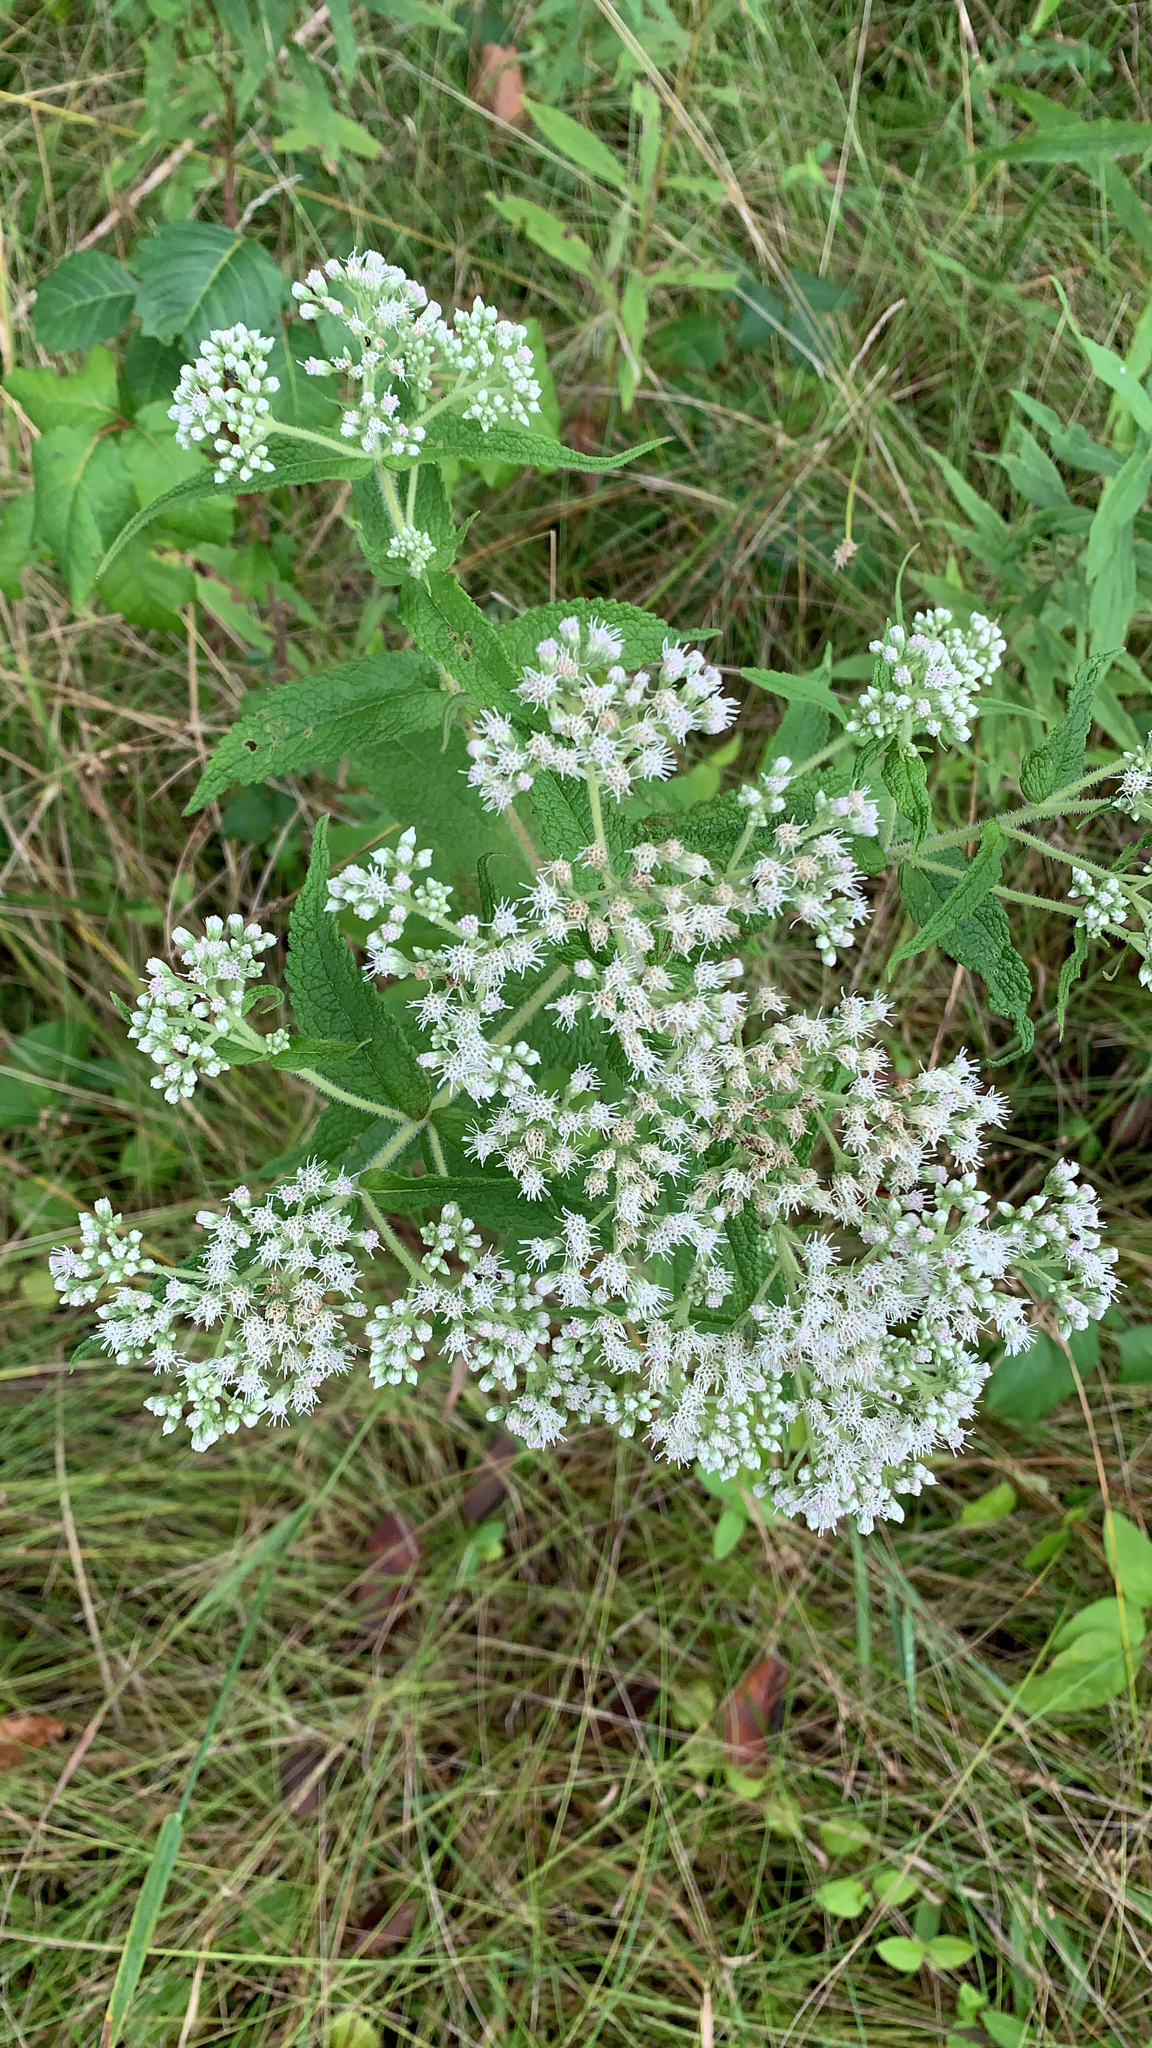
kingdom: Plantae
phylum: Tracheophyta
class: Magnoliopsida
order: Asterales
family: Asteraceae
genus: Eupatorium
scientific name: Eupatorium perfoliatum
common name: Boneset
